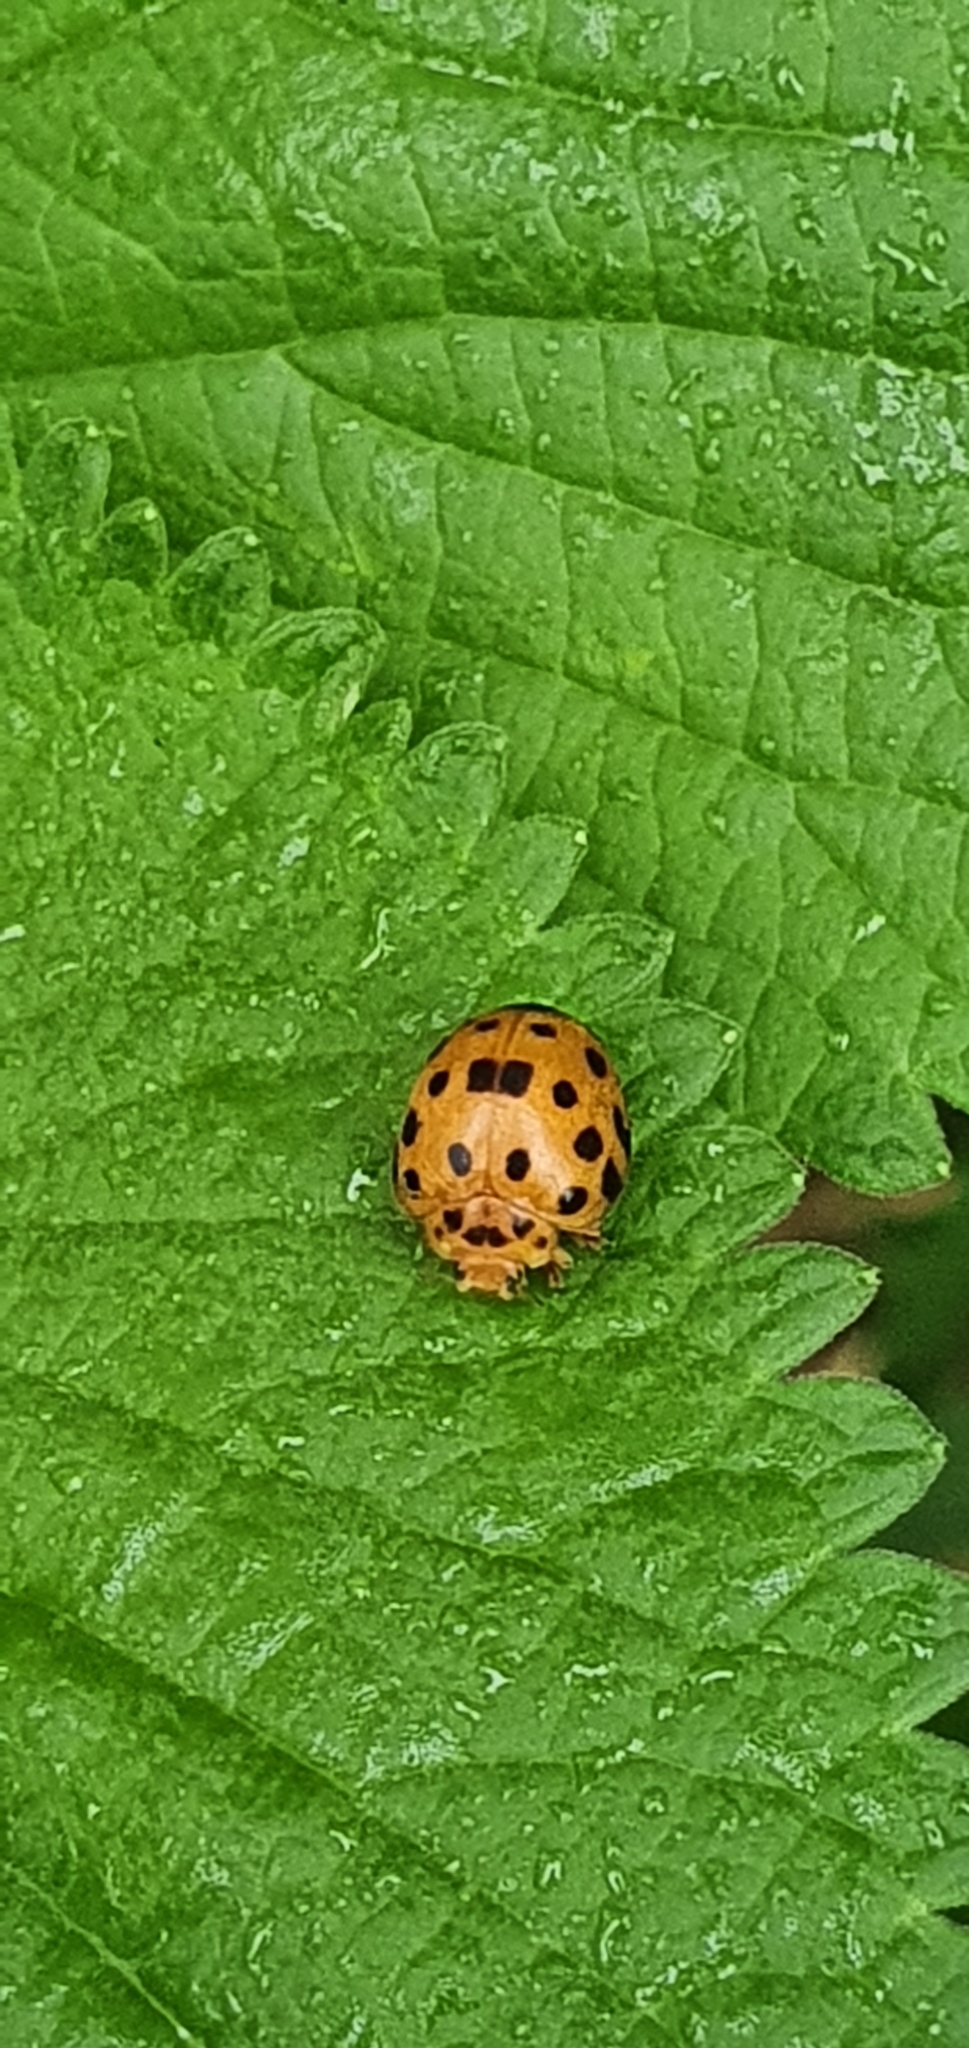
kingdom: Animalia
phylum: Arthropoda
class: Insecta
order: Coleoptera
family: Coccinellidae
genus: Henosepilachna
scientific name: Henosepilachna vigintioctopunctata
